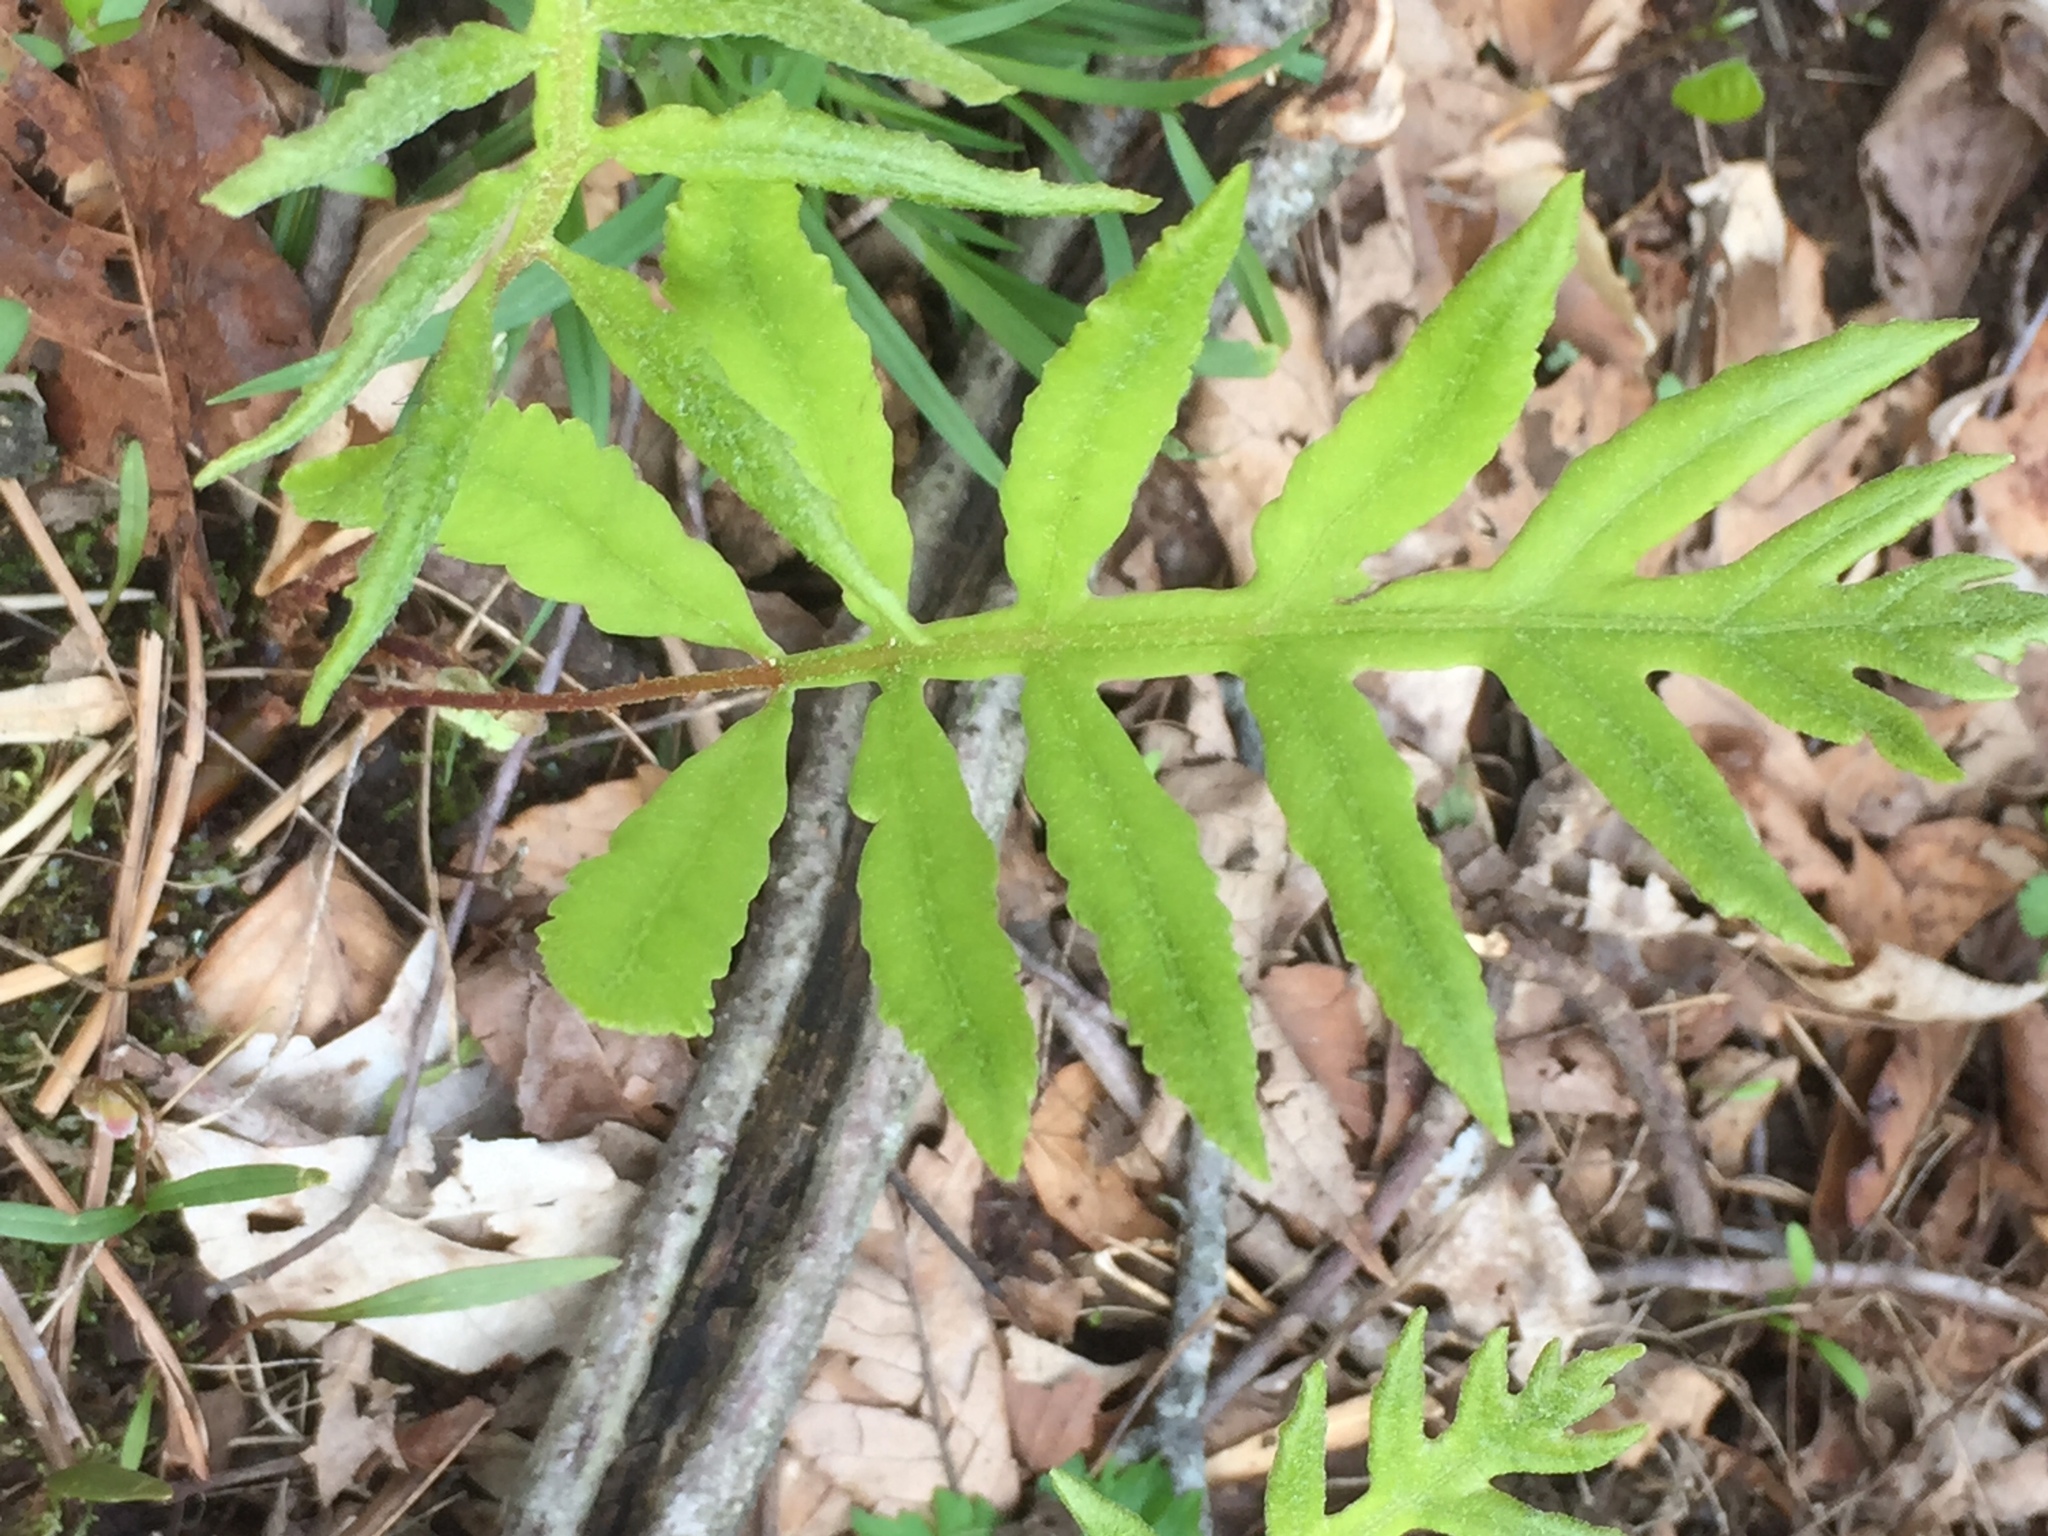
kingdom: Plantae
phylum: Tracheophyta
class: Polypodiopsida
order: Polypodiales
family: Onocleaceae
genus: Onoclea
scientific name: Onoclea sensibilis
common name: Sensitive fern
